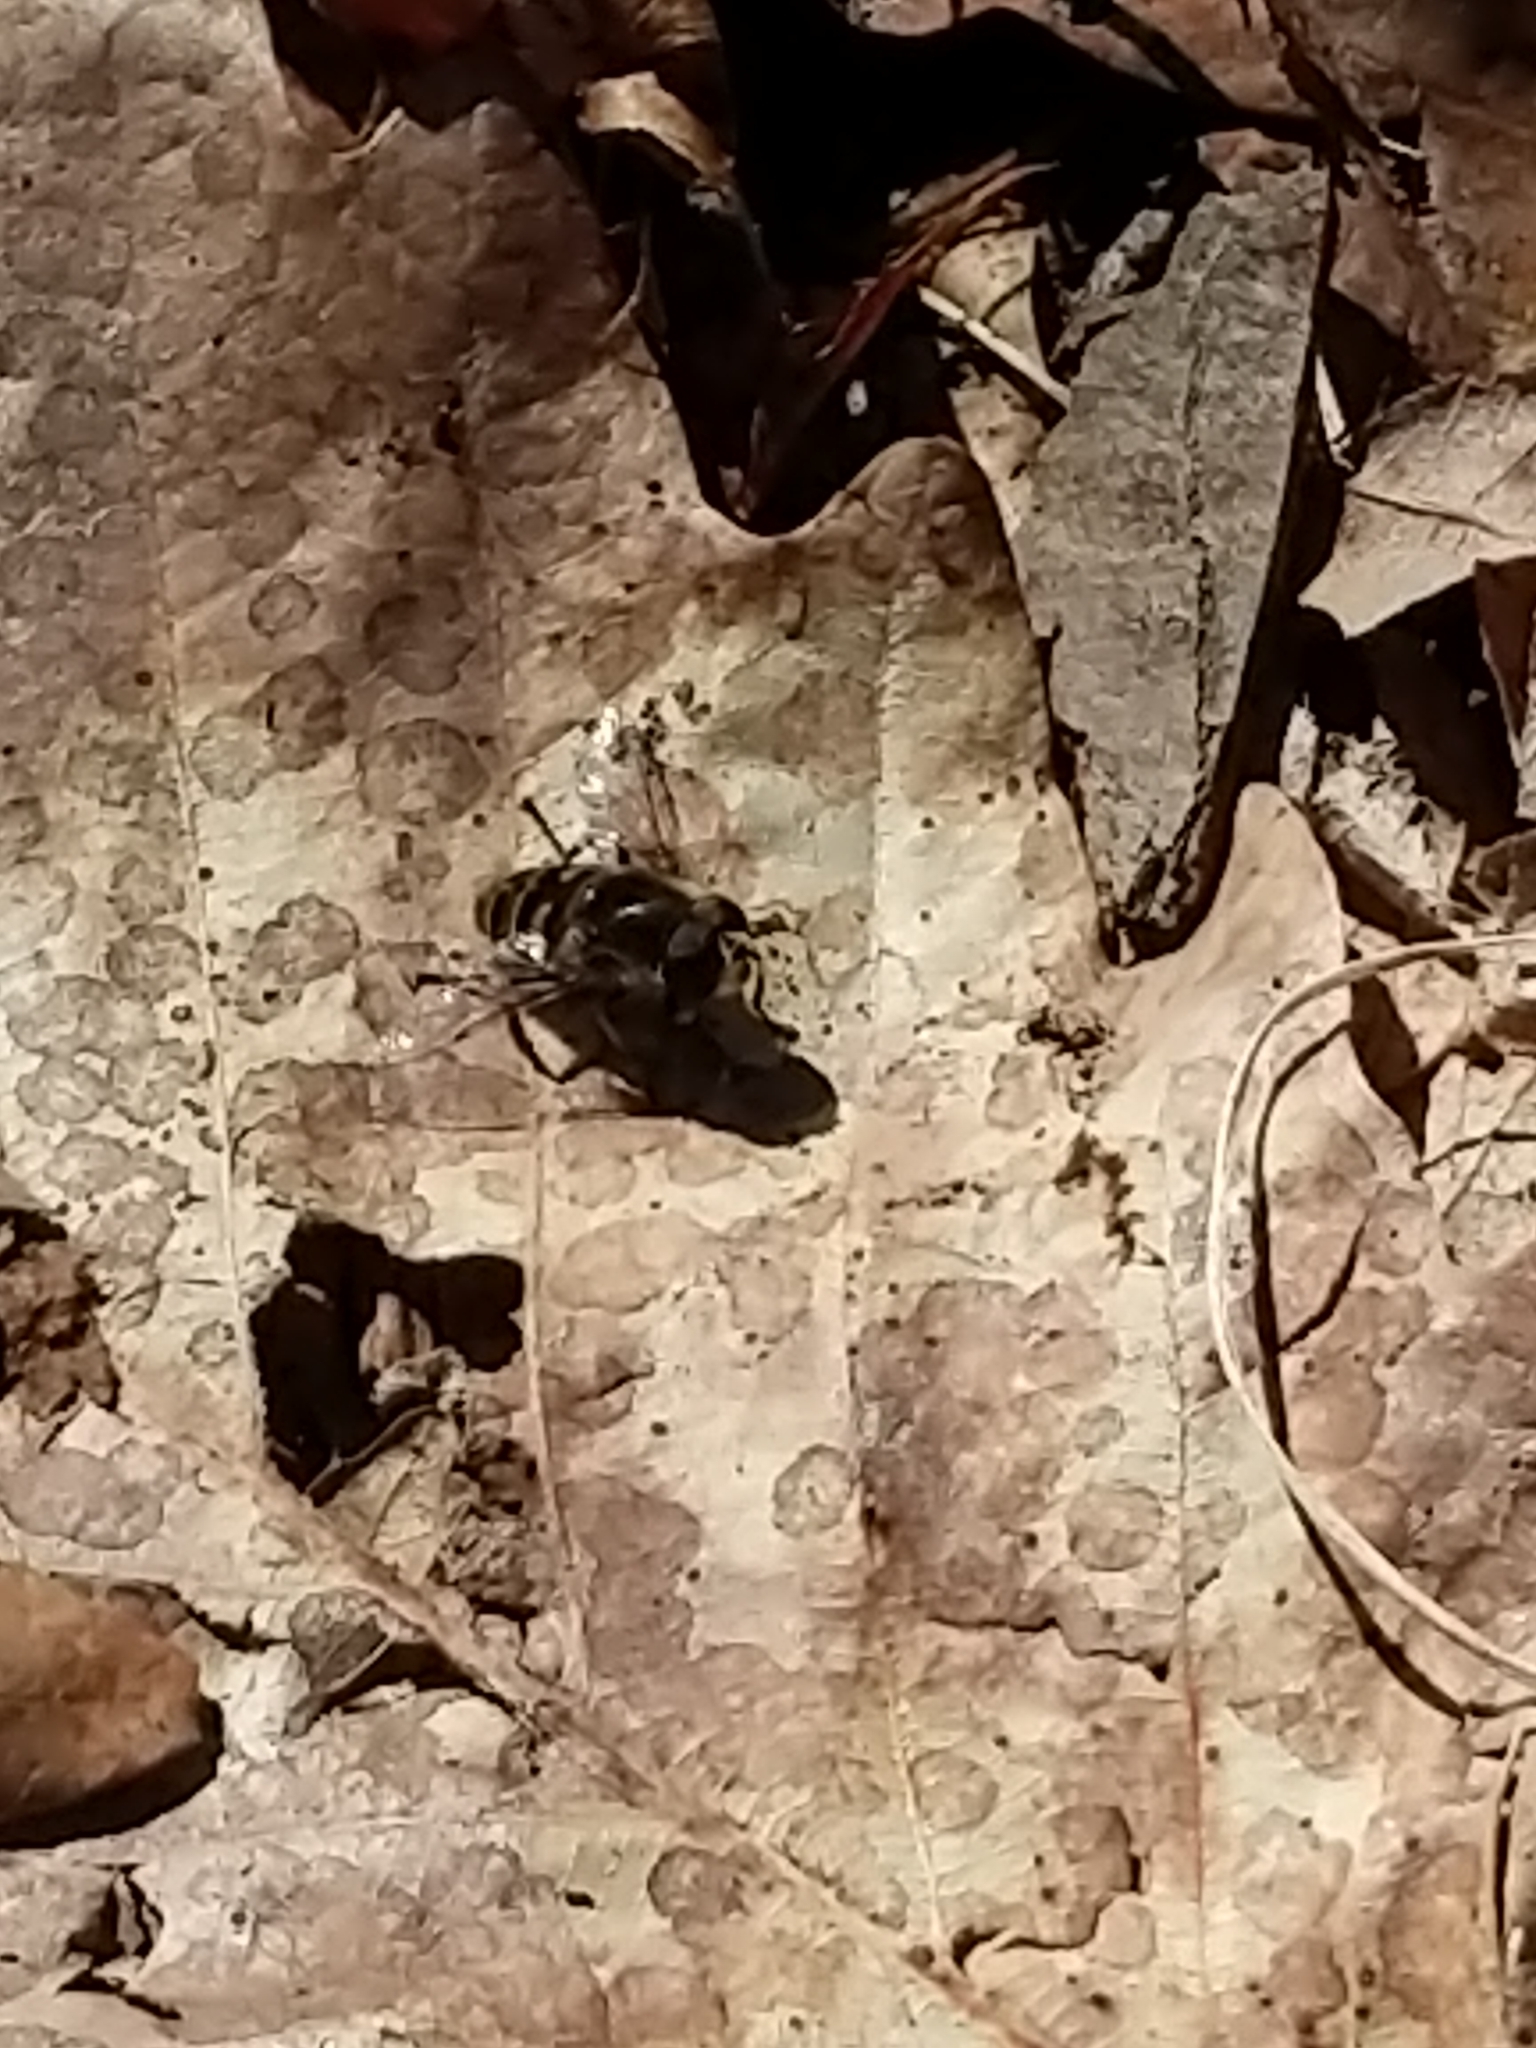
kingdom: Animalia
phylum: Arthropoda
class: Insecta
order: Diptera
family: Syrphidae
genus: Eristalis
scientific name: Eristalis dimidiata
